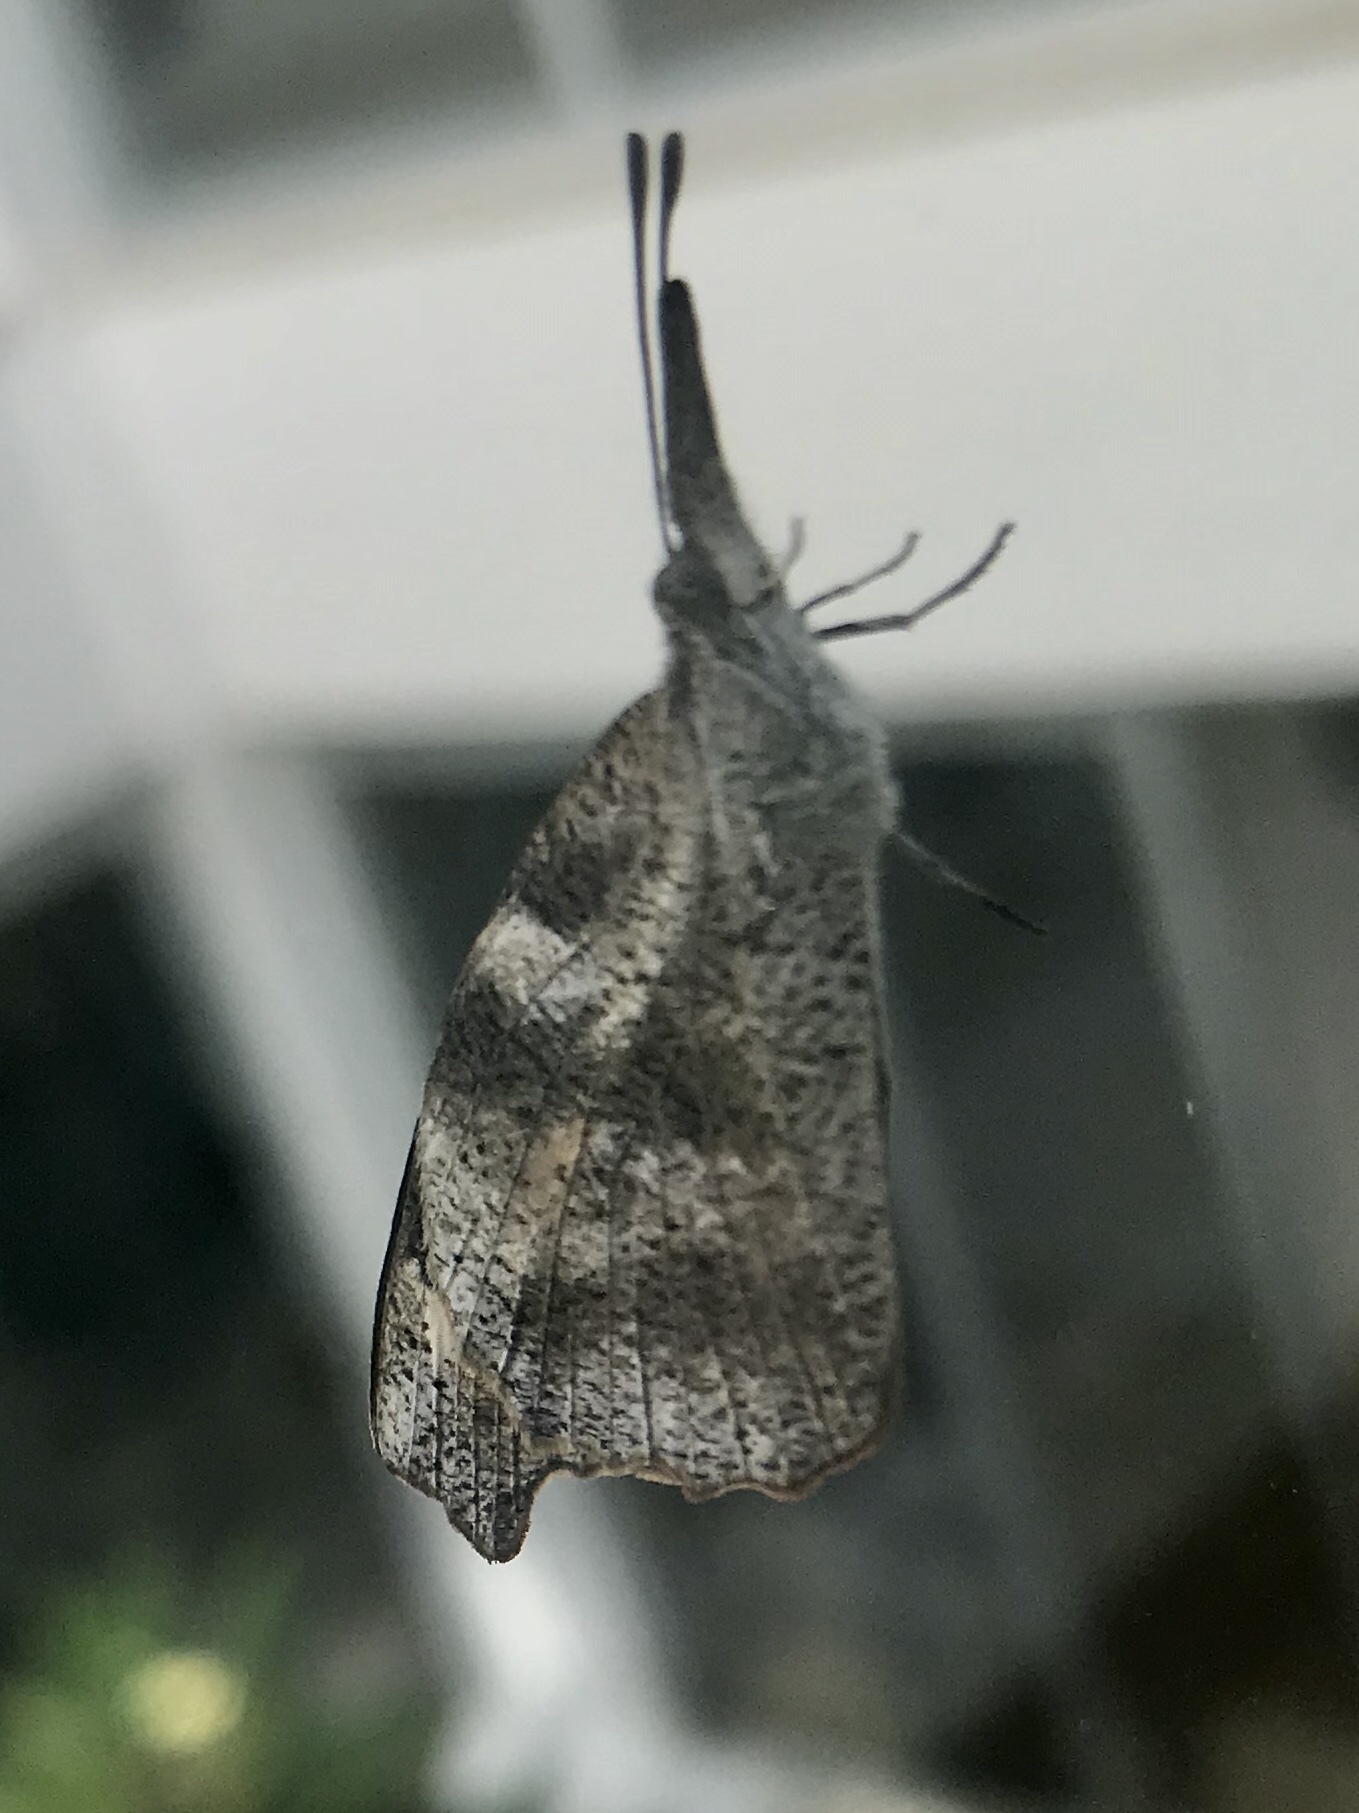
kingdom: Animalia
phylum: Arthropoda
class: Insecta
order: Lepidoptera
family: Nymphalidae
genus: Libytheana
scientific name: Libytheana terena
